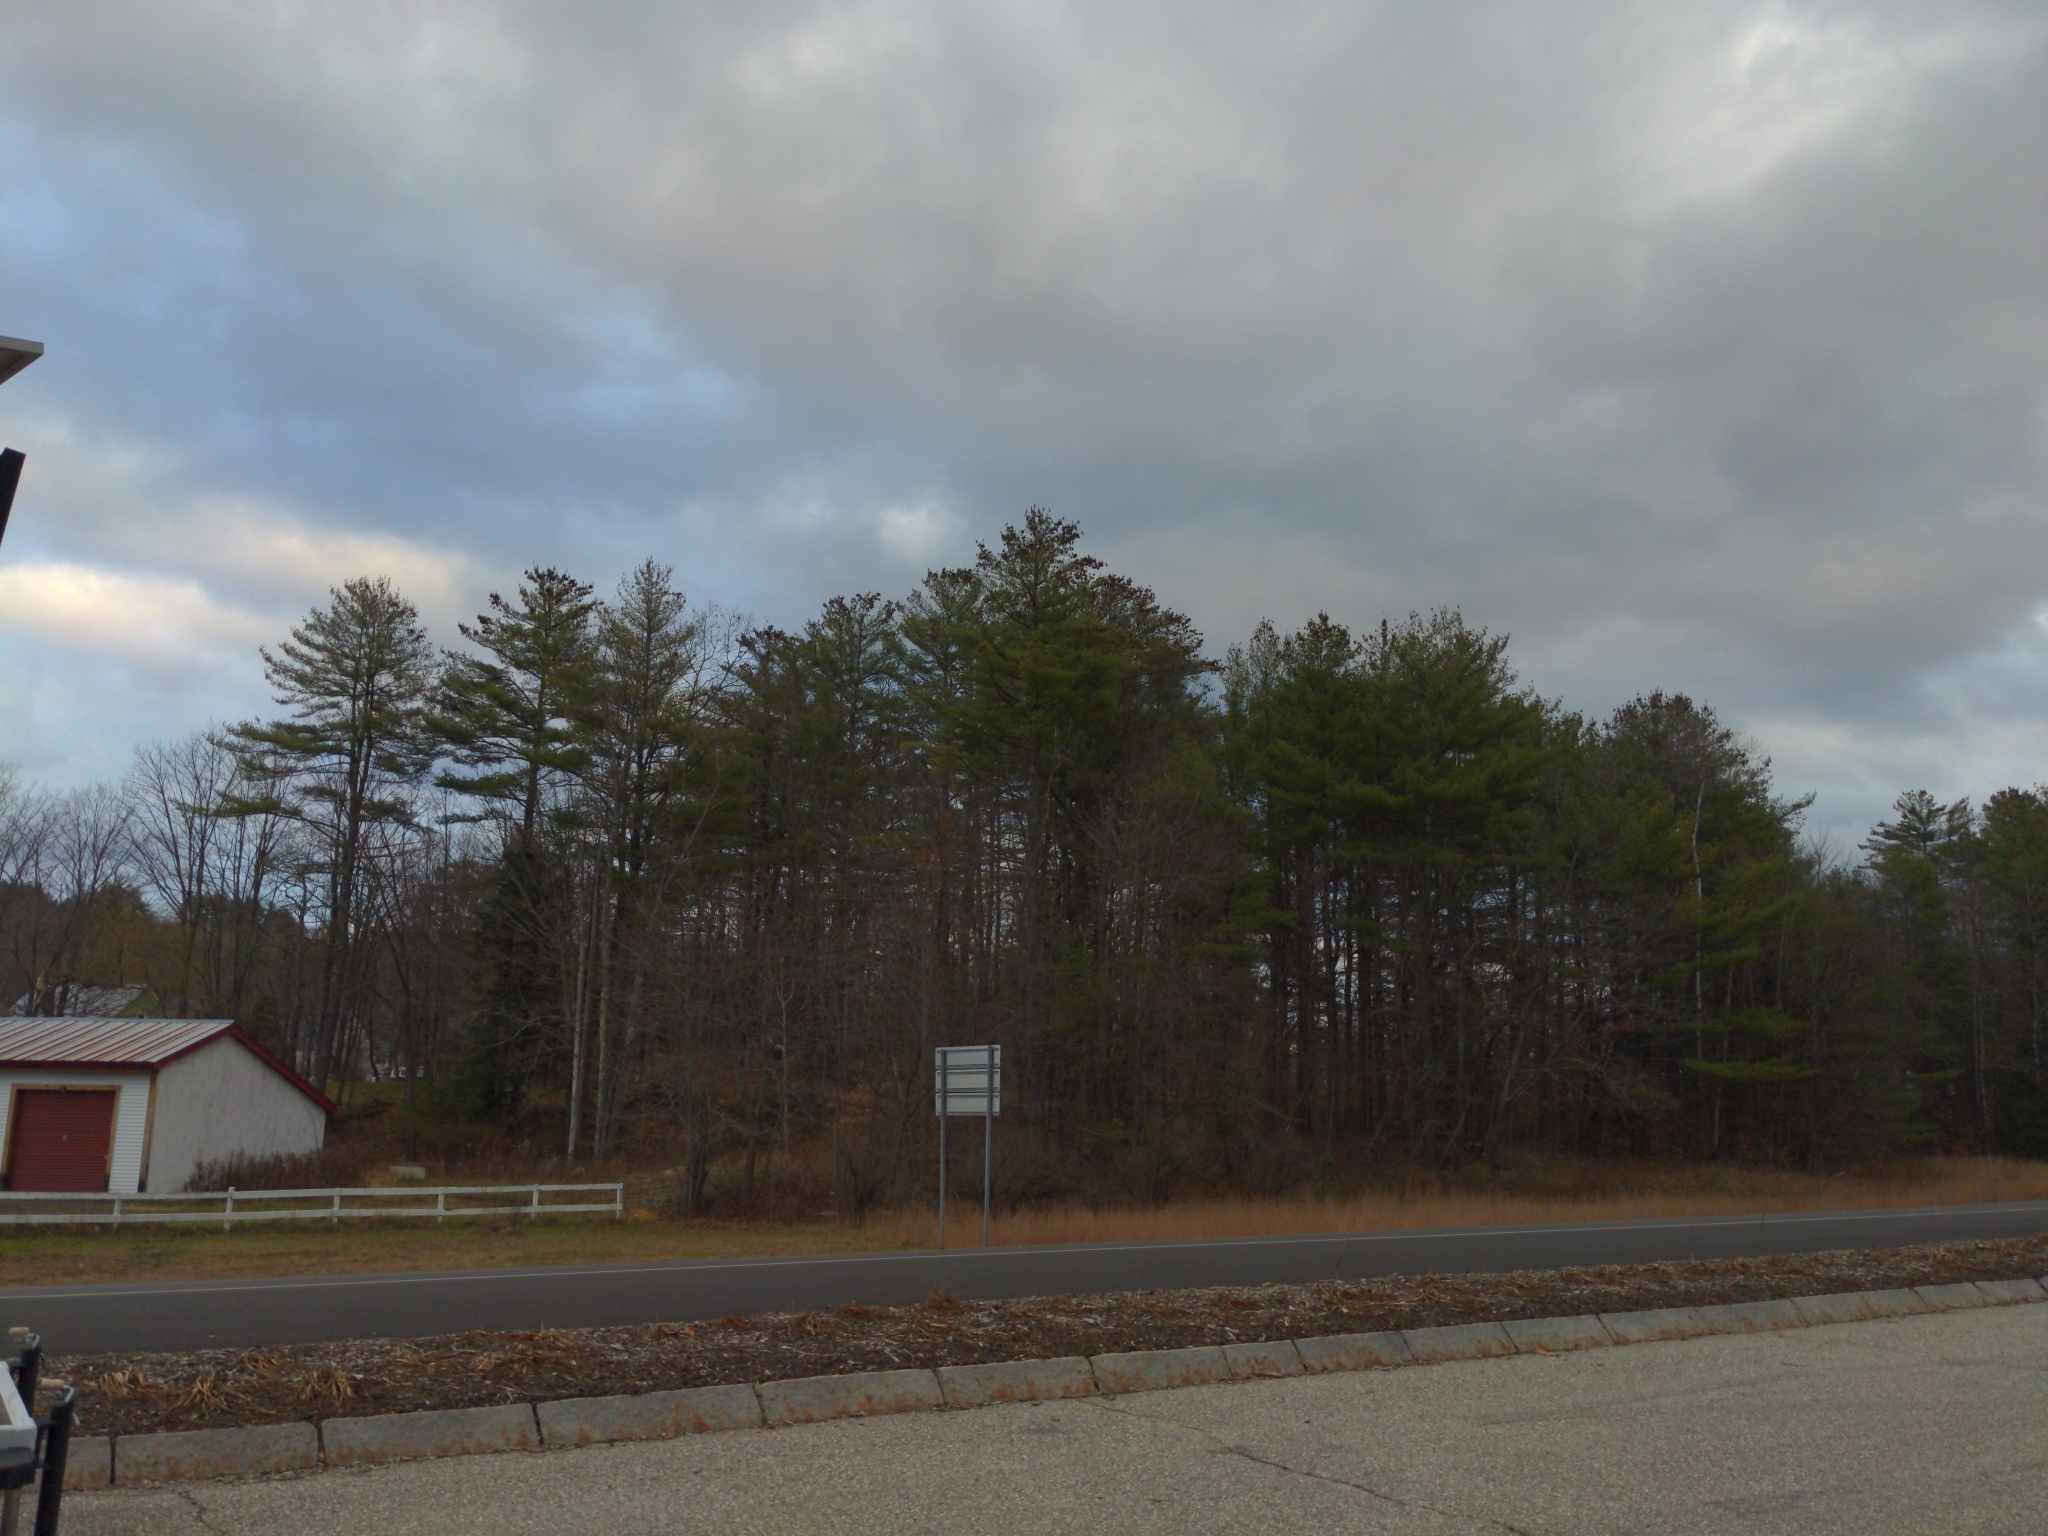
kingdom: Plantae
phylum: Tracheophyta
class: Pinopsida
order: Pinales
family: Pinaceae
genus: Pinus
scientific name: Pinus strobus
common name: Weymouth pine
